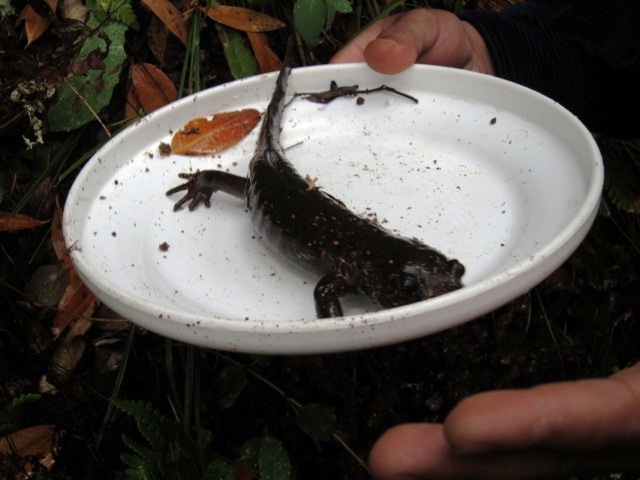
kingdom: Animalia
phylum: Chordata
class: Amphibia
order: Caudata
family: Ambystomatidae
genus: Dicamptodon
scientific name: Dicamptodon ensatus
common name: California giant salamander
